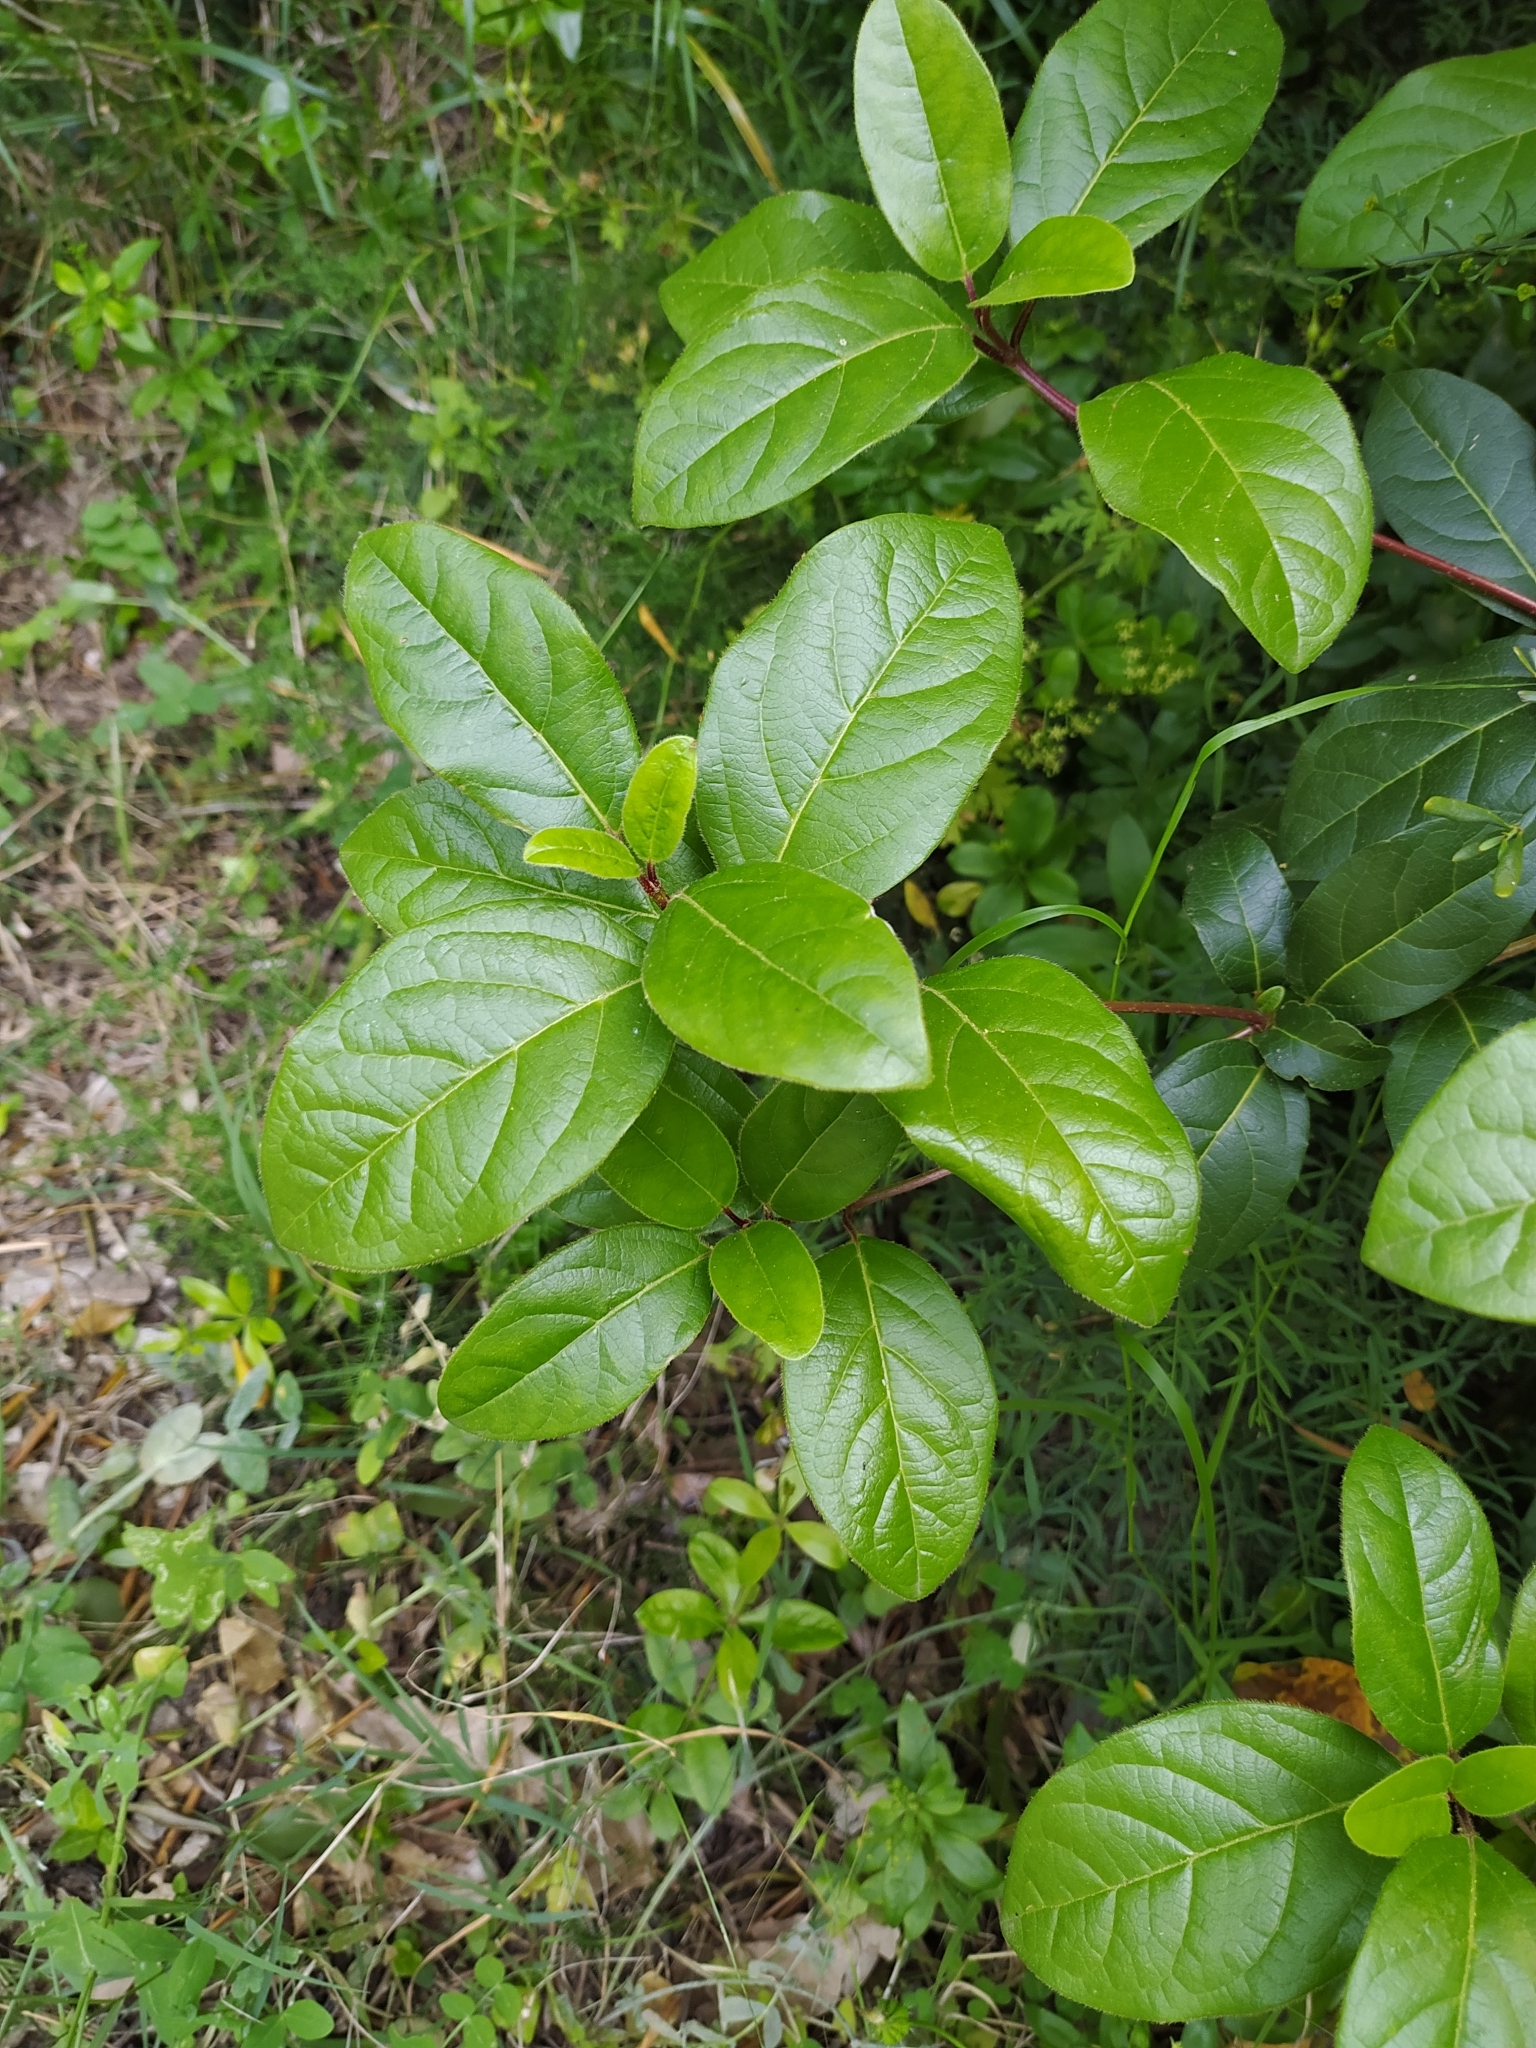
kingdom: Plantae
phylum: Tracheophyta
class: Magnoliopsida
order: Dipsacales
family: Viburnaceae
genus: Viburnum
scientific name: Viburnum tinus
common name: Laurustinus
